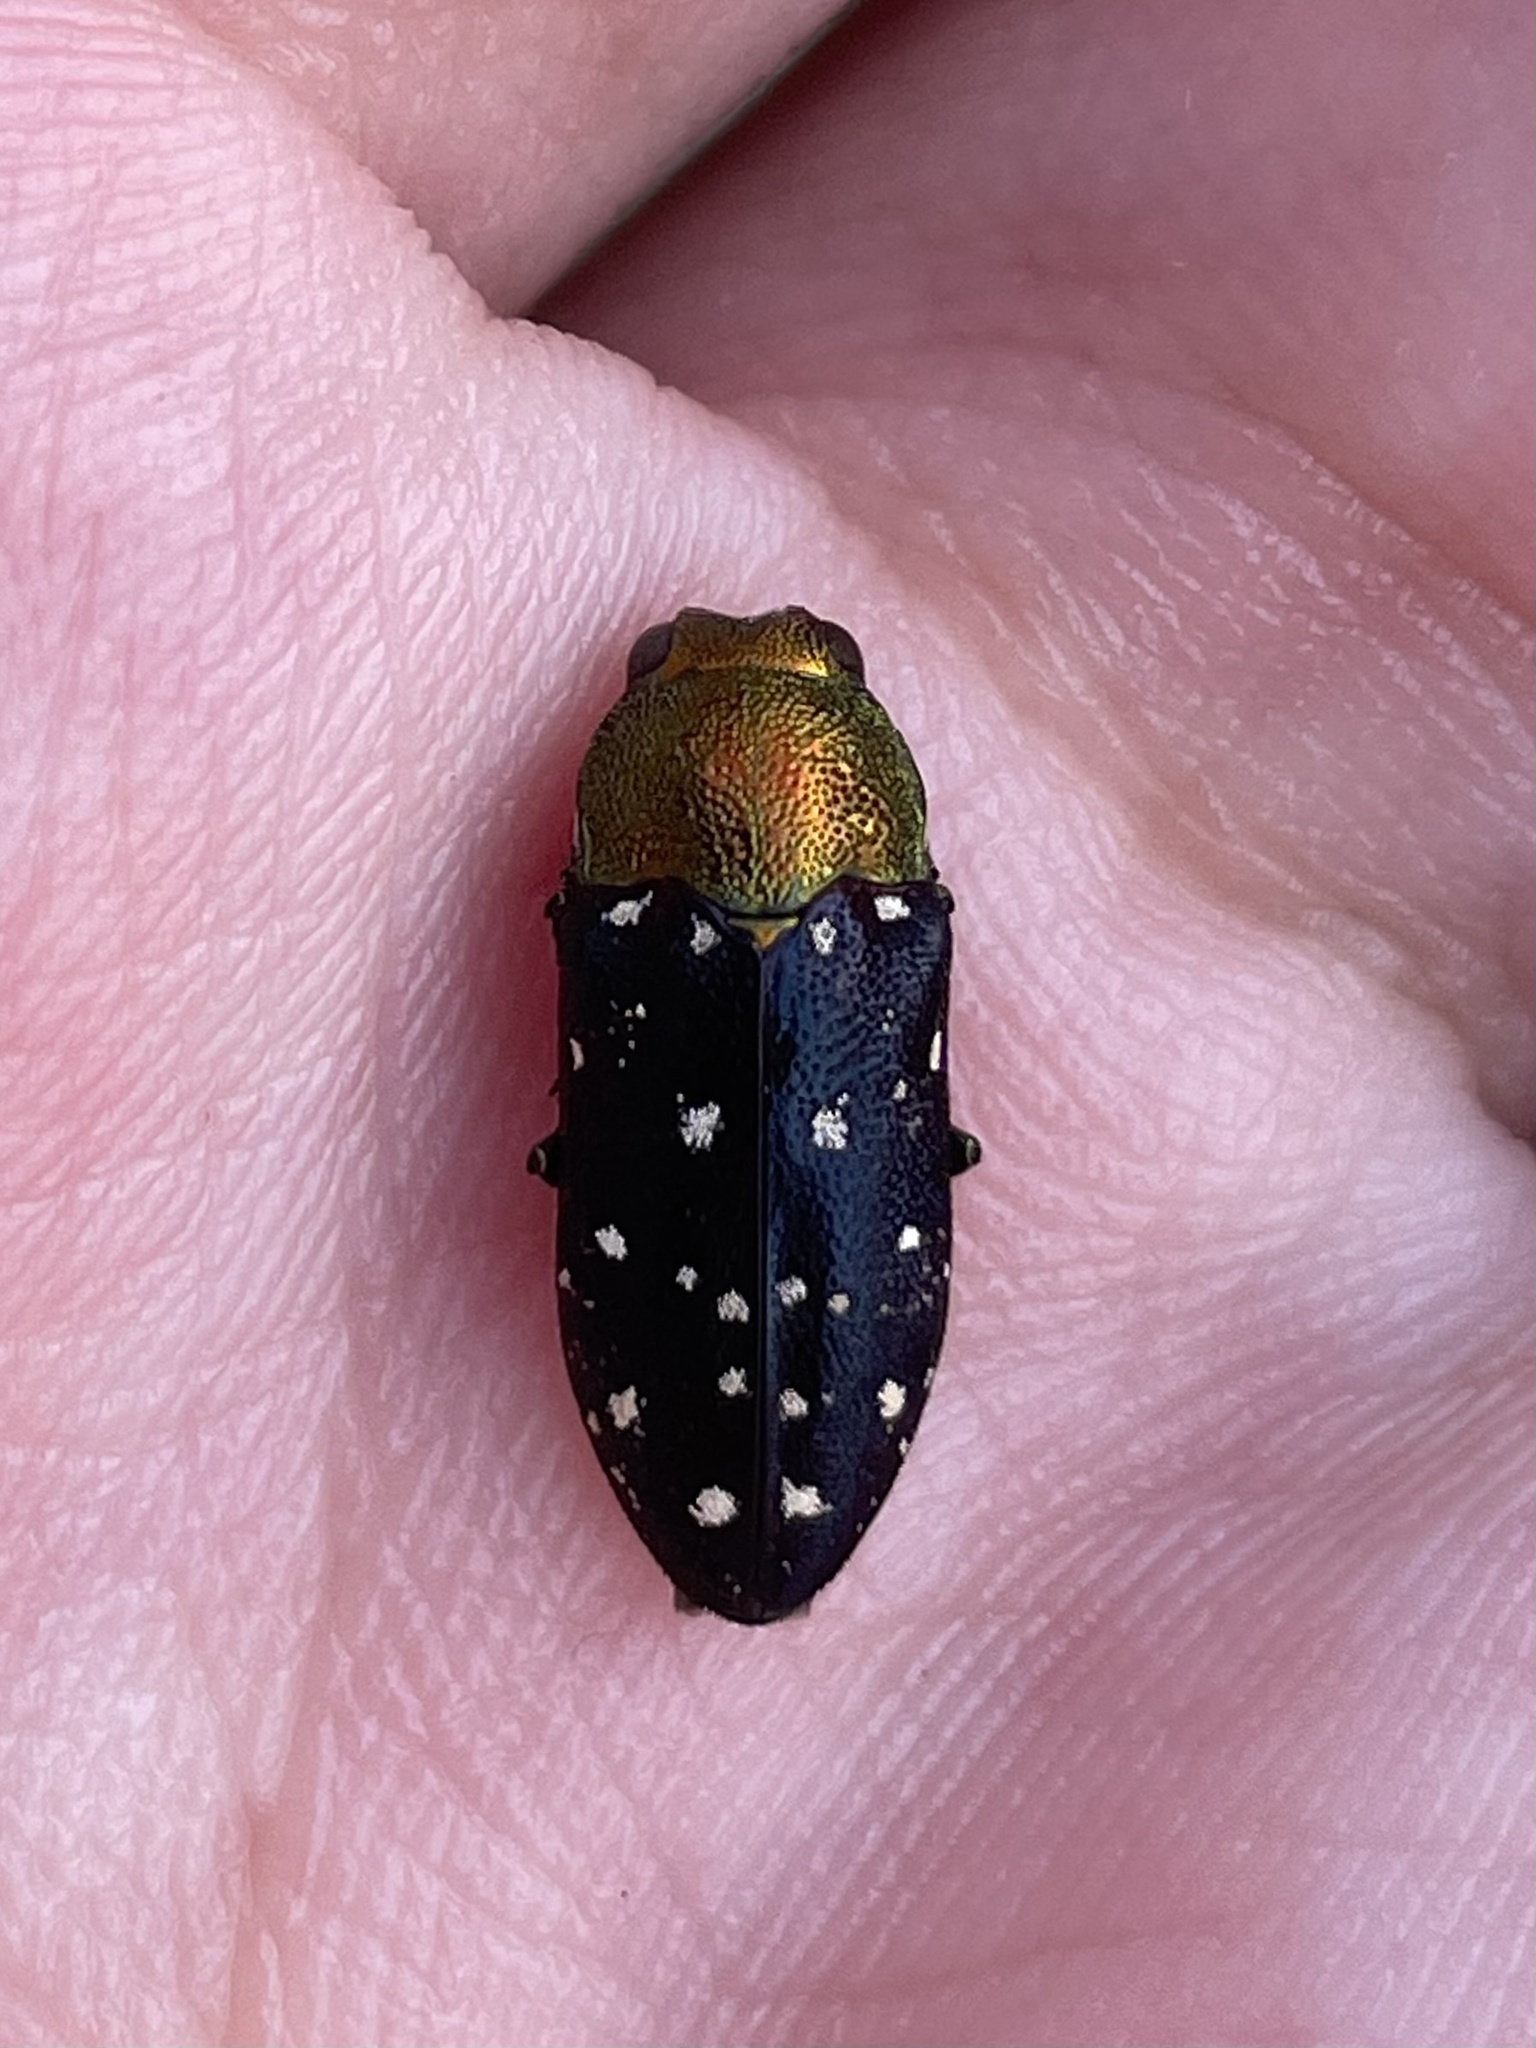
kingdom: Animalia
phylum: Arthropoda
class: Insecta
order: Coleoptera
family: Buprestidae
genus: Diphucrania
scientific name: Diphucrania leucosticta
